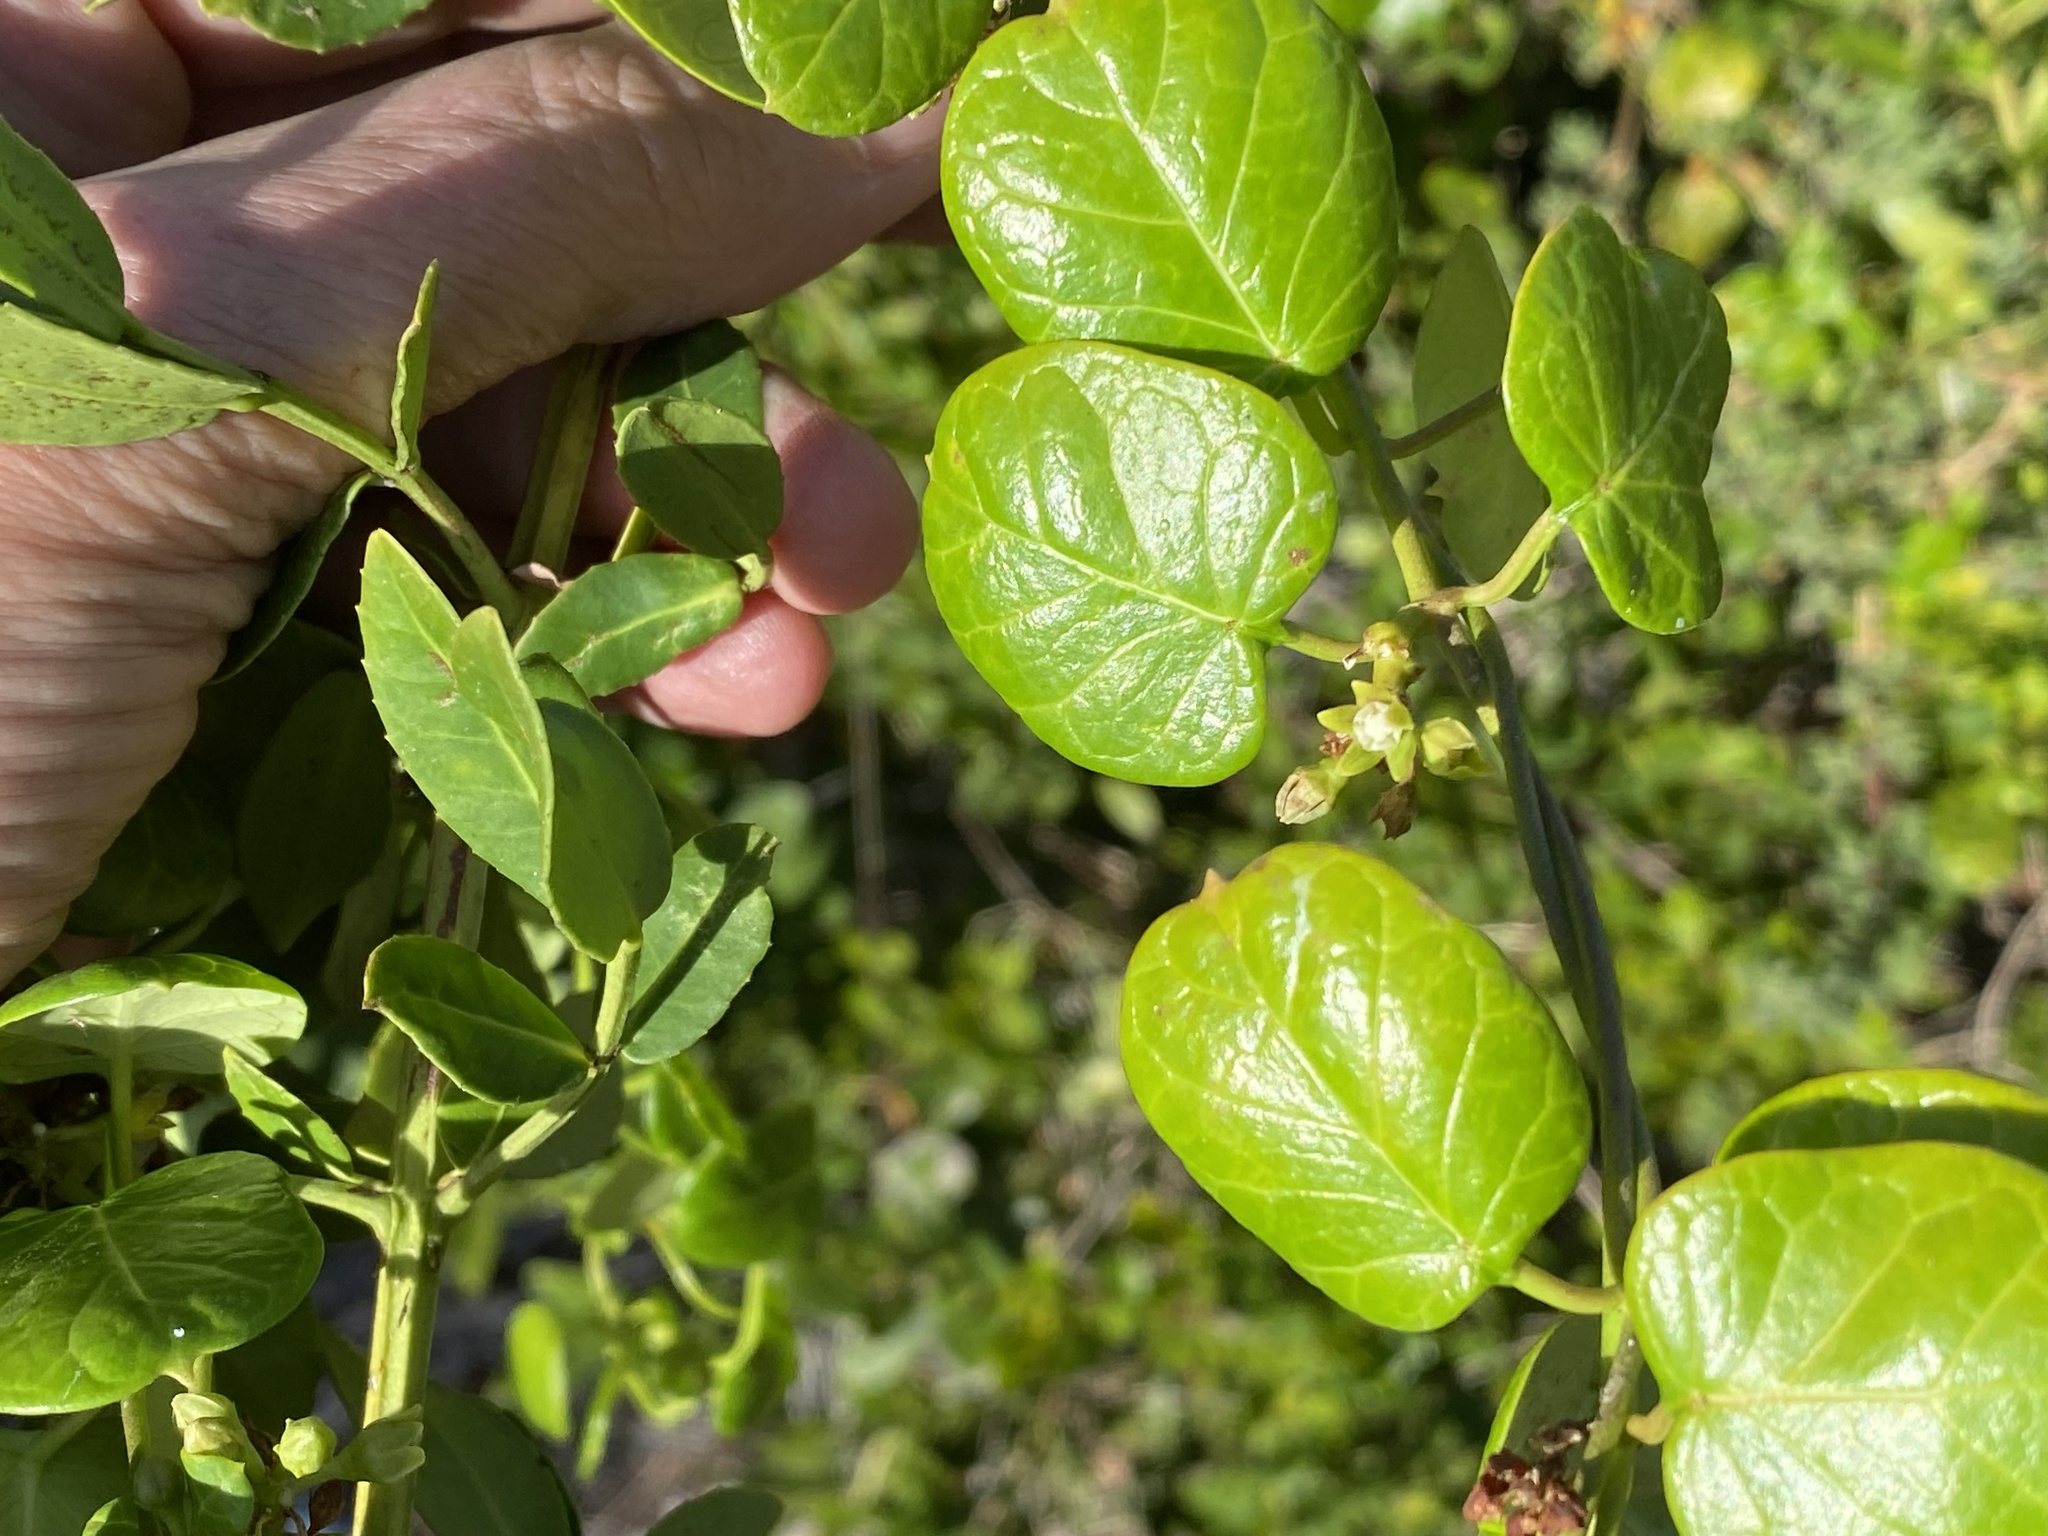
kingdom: Plantae
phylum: Tracheophyta
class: Magnoliopsida
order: Gentianales
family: Apocynaceae
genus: Cynanchum
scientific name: Cynanchum obtusifolium
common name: Monkey-rope
